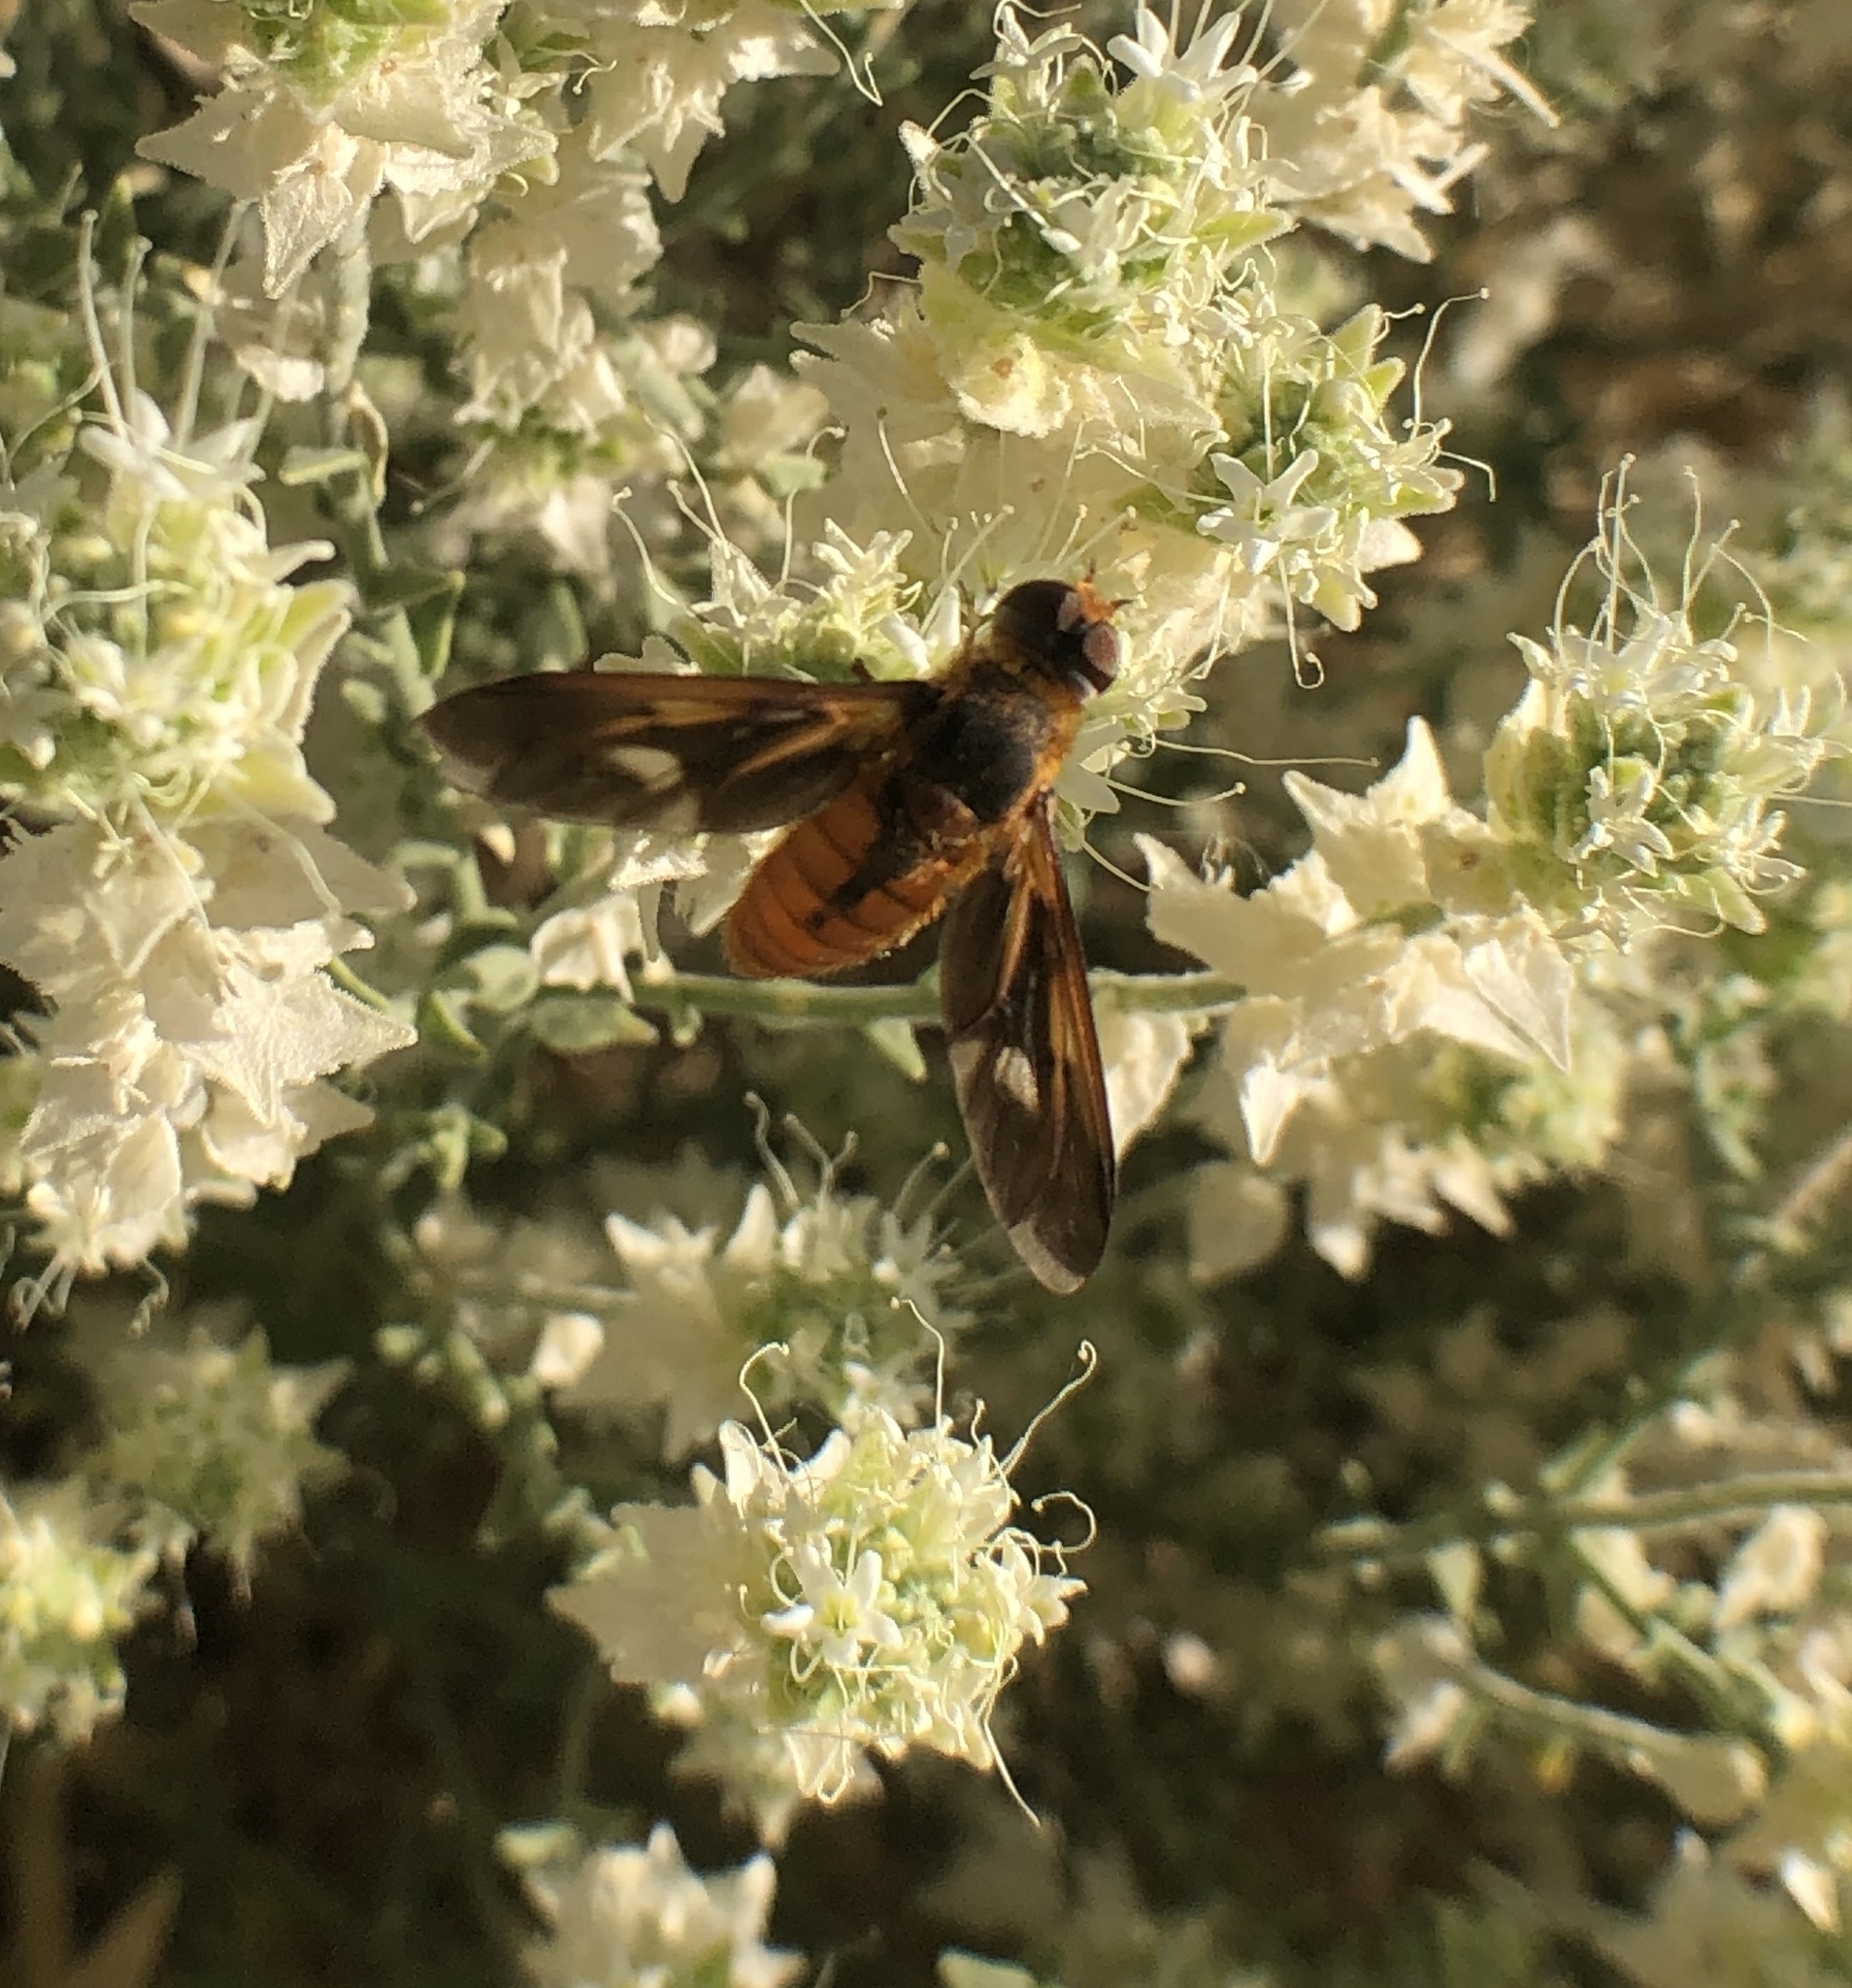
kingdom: Animalia
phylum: Arthropoda
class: Insecta
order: Diptera
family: Bombyliidae
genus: Poecilanthrax
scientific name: Poecilanthrax eremicus
